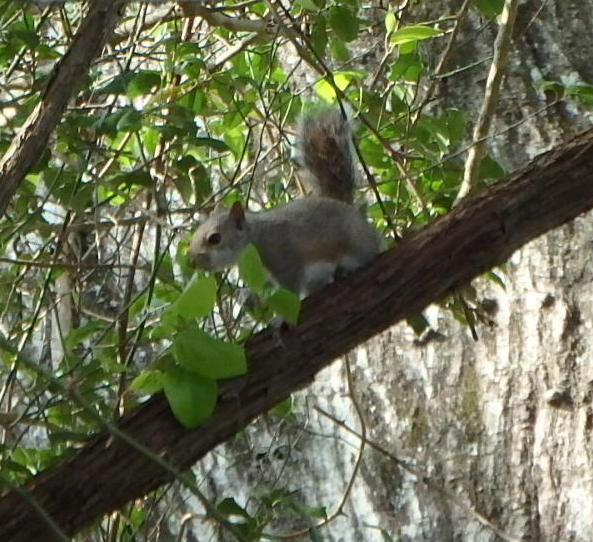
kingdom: Animalia
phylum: Chordata
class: Mammalia
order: Rodentia
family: Sciuridae
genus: Sciurus
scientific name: Sciurus carolinensis
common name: Eastern gray squirrel
